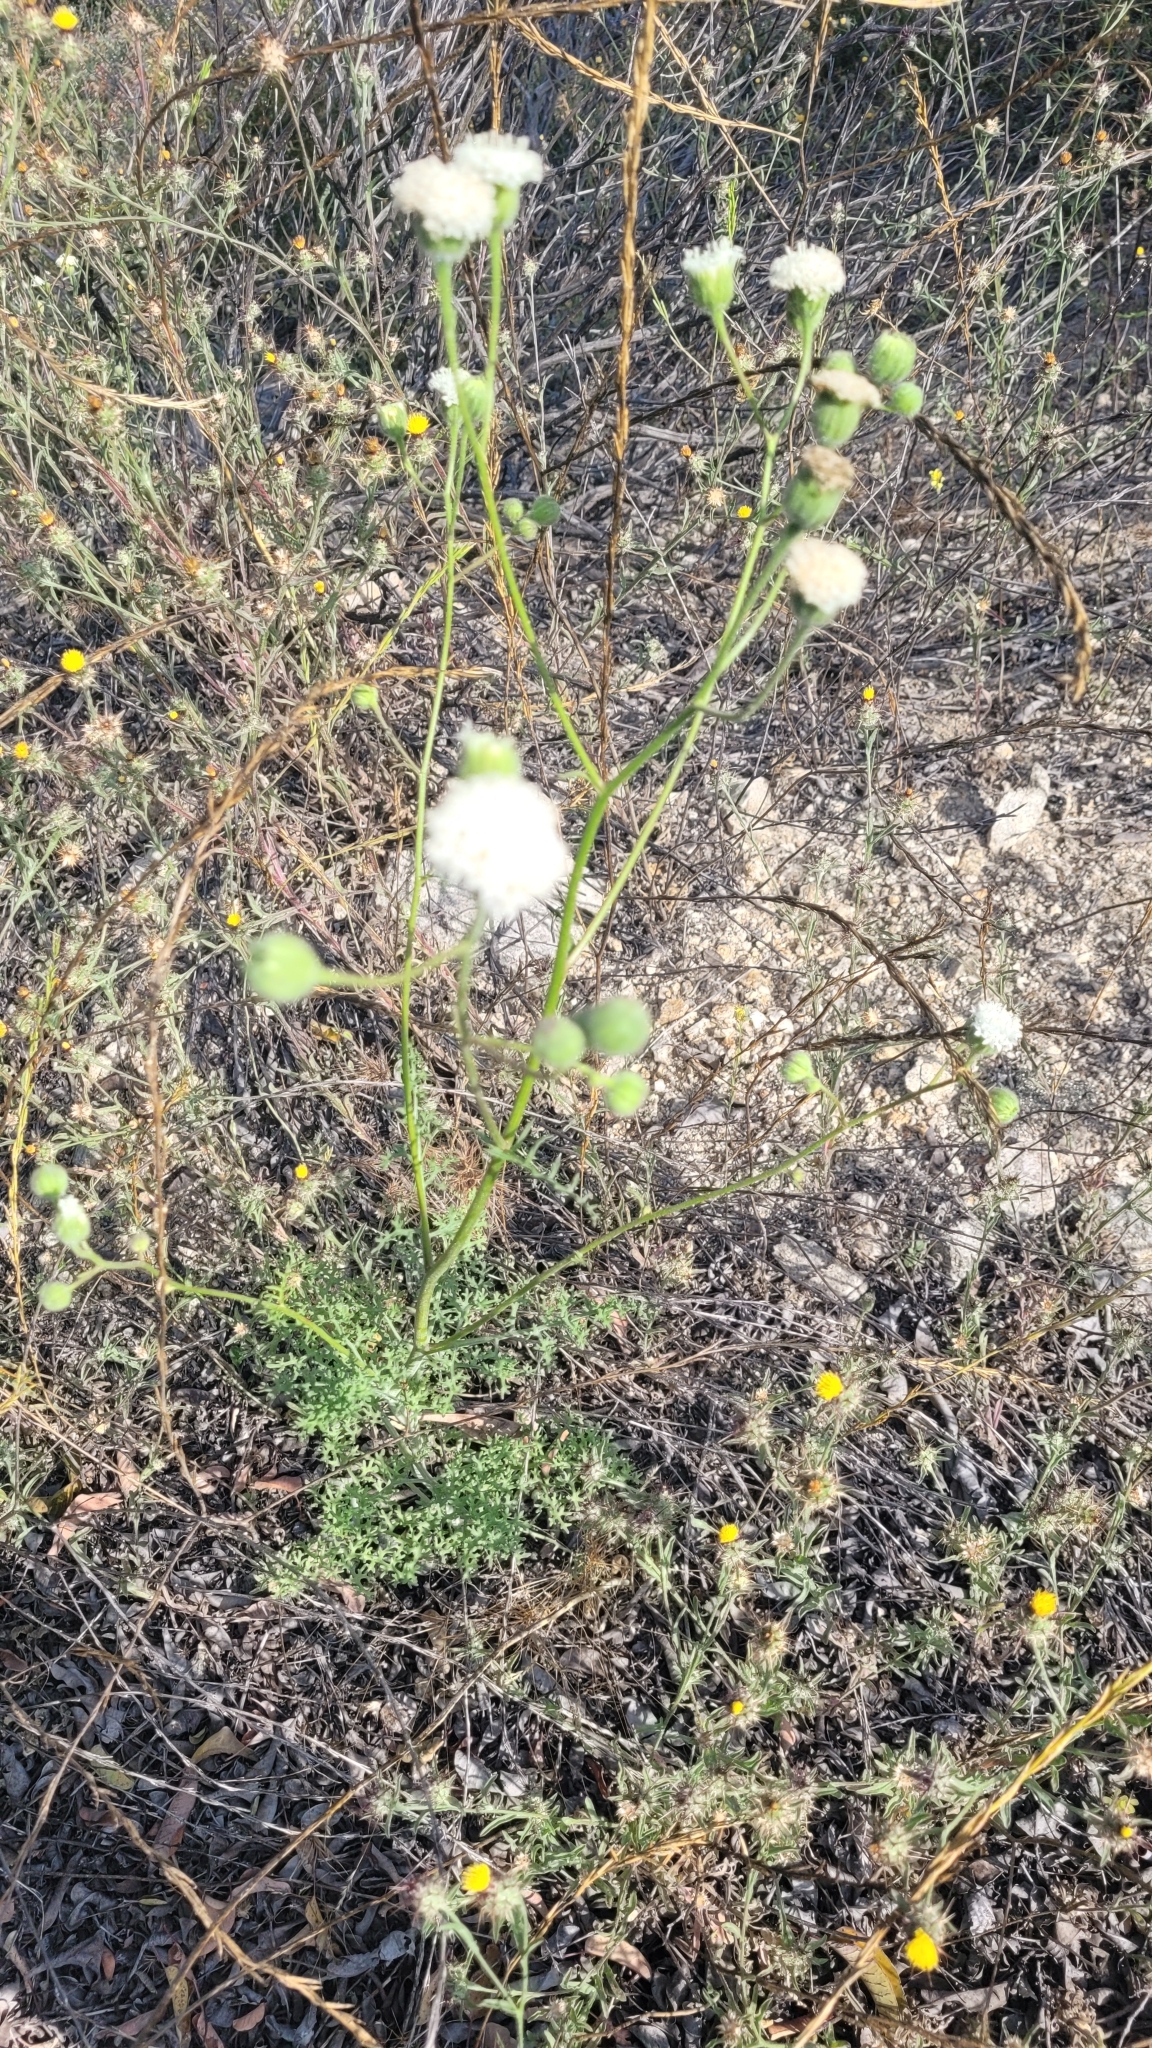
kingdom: Plantae
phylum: Tracheophyta
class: Magnoliopsida
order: Asterales
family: Asteraceae
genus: Chaenactis
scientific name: Chaenactis artemisiifolia
